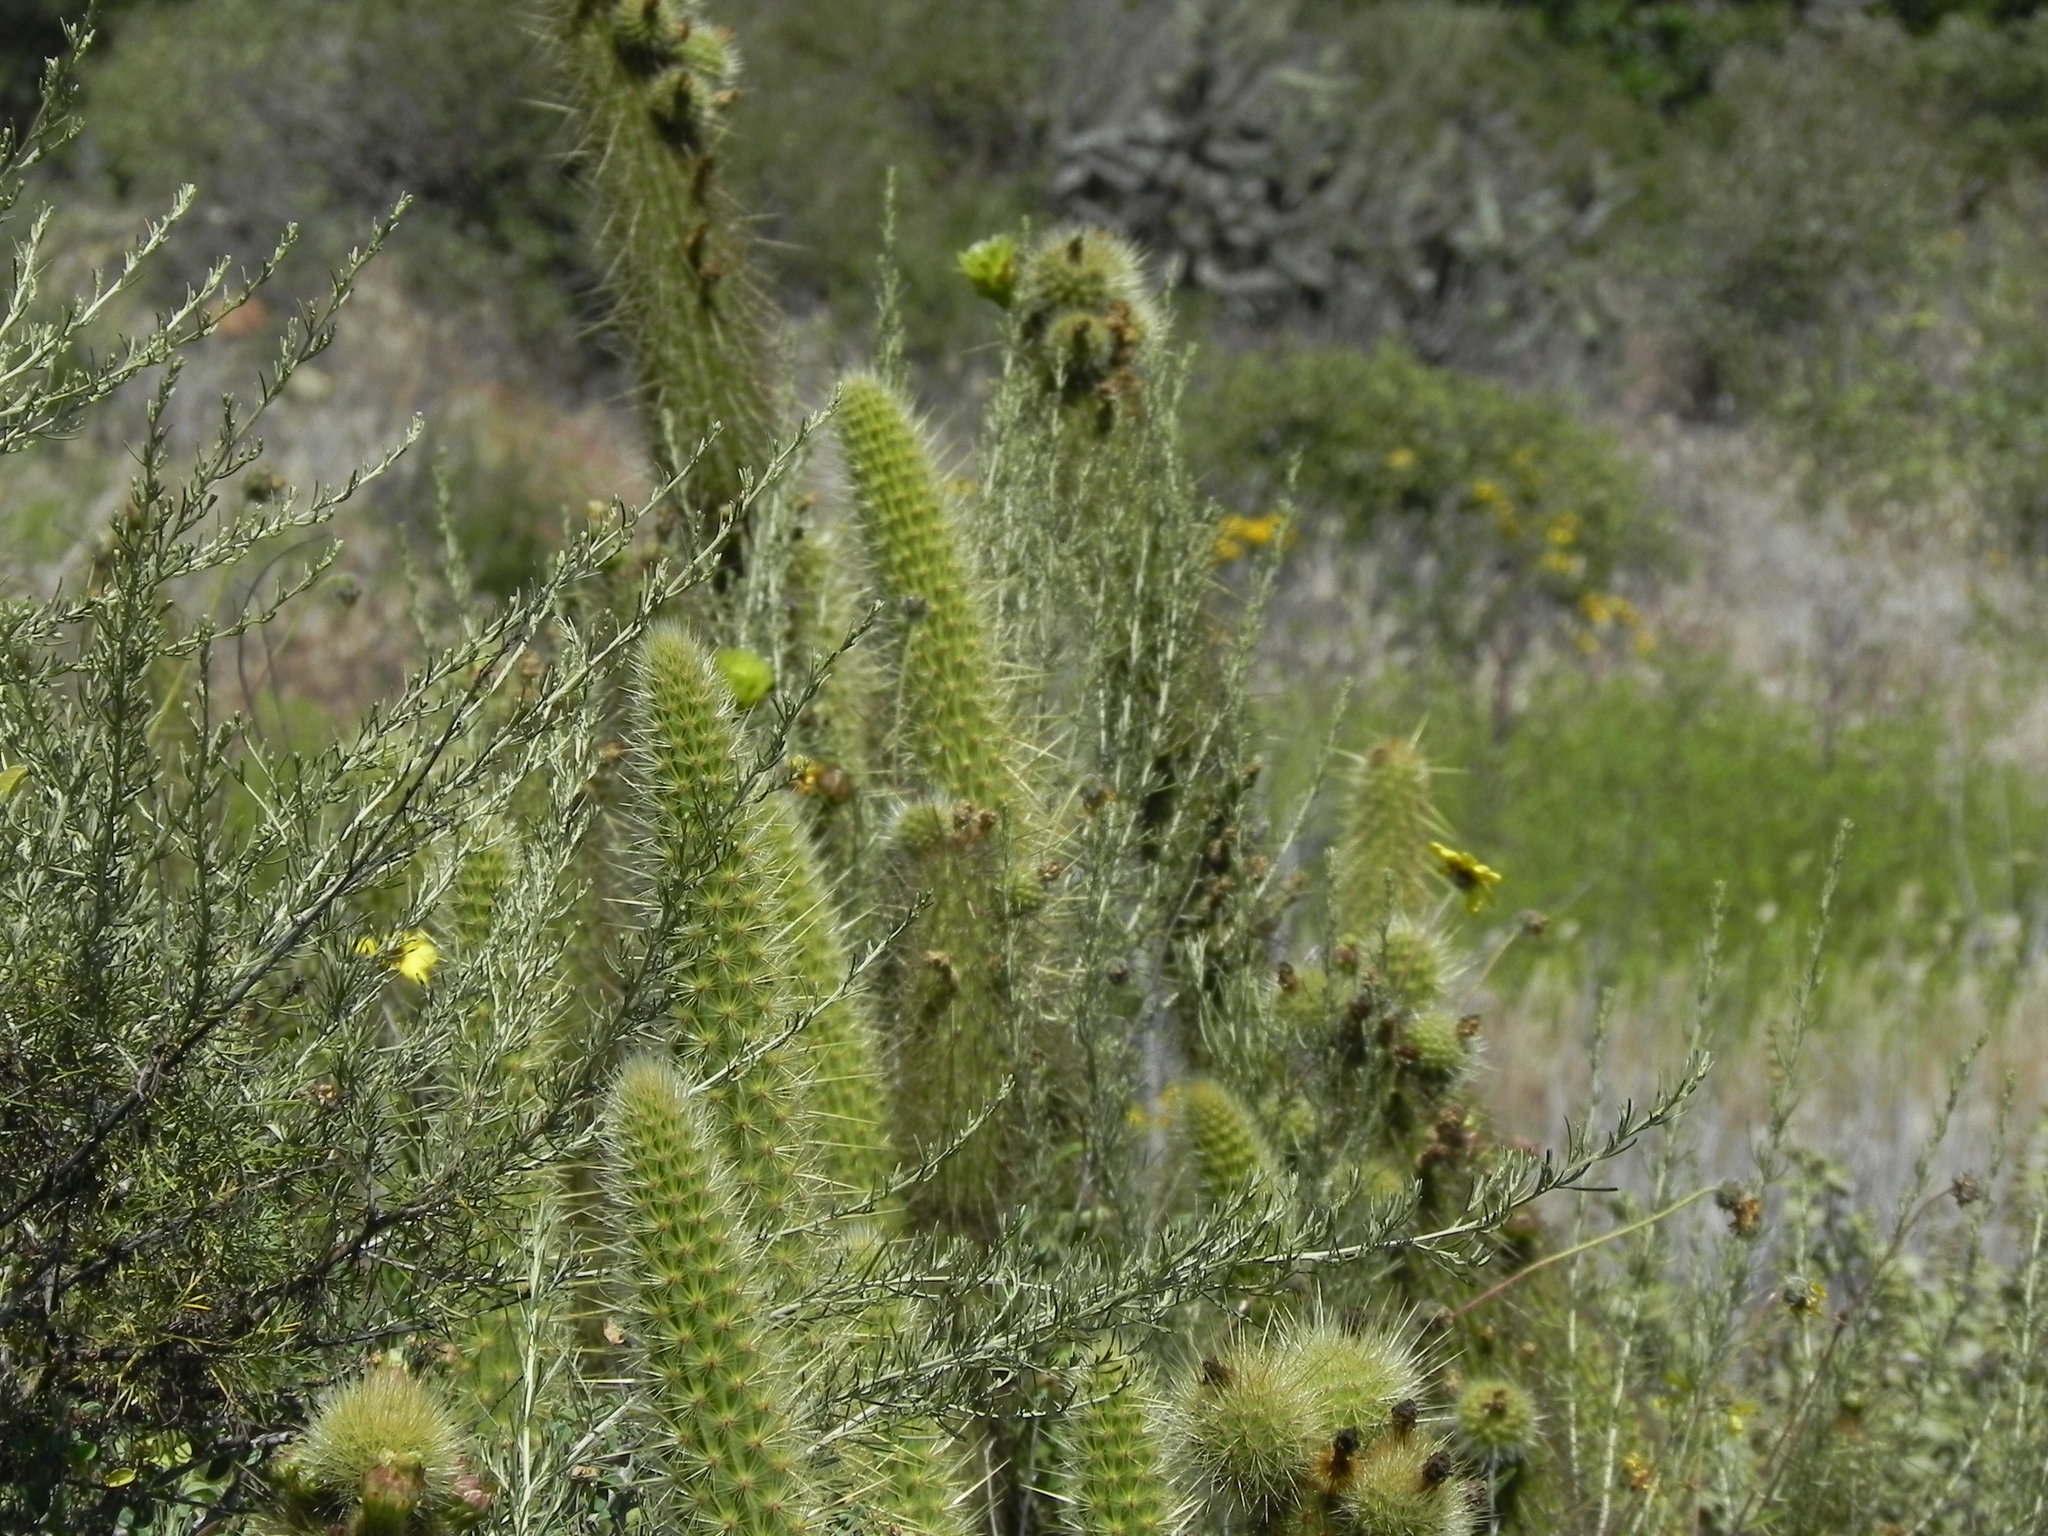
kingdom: Plantae
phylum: Tracheophyta
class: Magnoliopsida
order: Caryophyllales
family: Cactaceae
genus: Bergerocactus
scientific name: Bergerocactus emoryi
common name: Golden snakecactus
